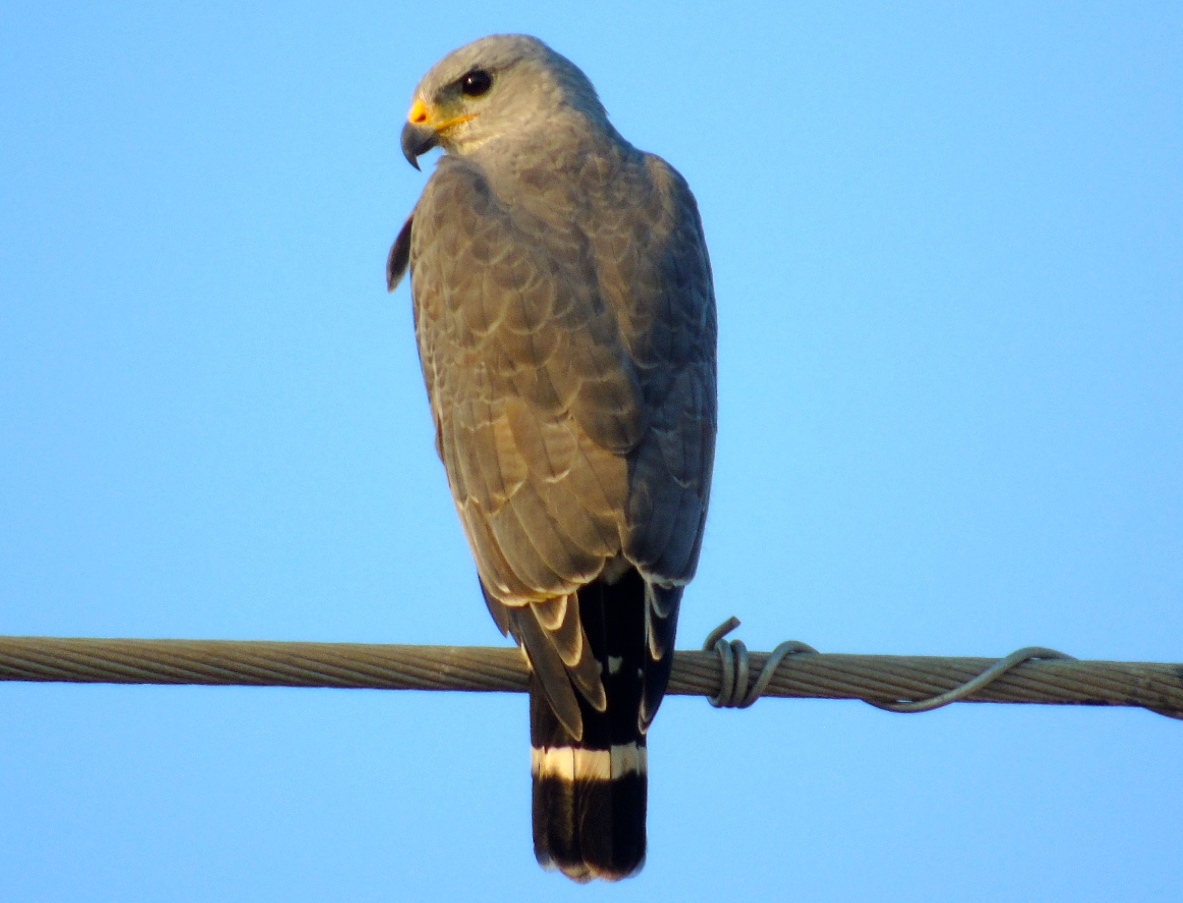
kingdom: Animalia
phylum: Chordata
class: Aves
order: Accipitriformes
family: Accipitridae
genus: Buteo
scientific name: Buteo nitidus
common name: Grey-lined hawk
